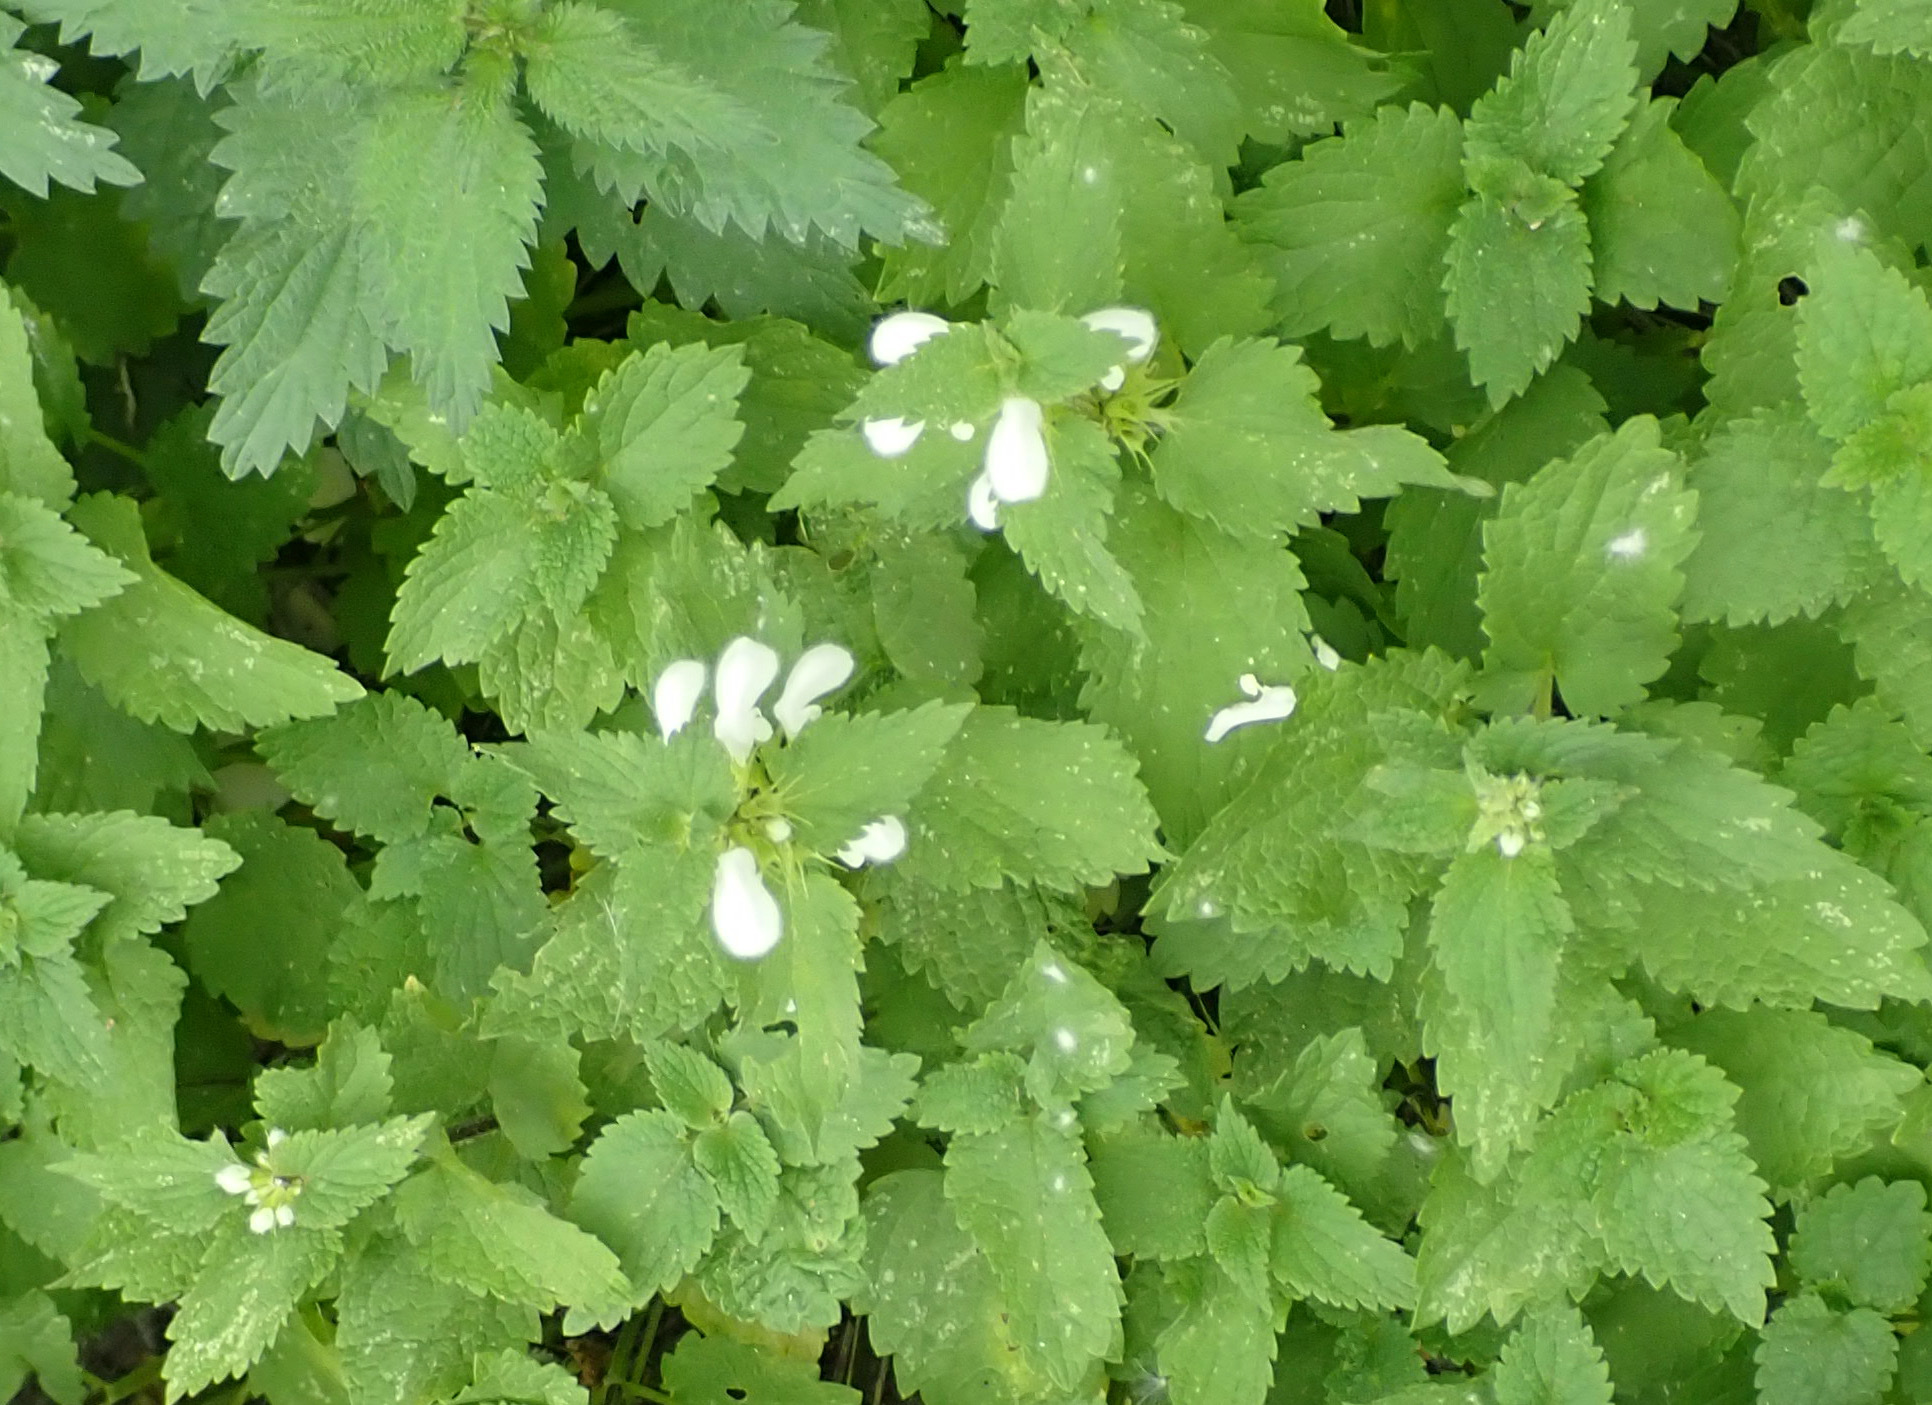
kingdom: Plantae
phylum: Tracheophyta
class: Magnoliopsida
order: Lamiales
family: Lamiaceae
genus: Lamium
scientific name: Lamium album
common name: White dead-nettle
